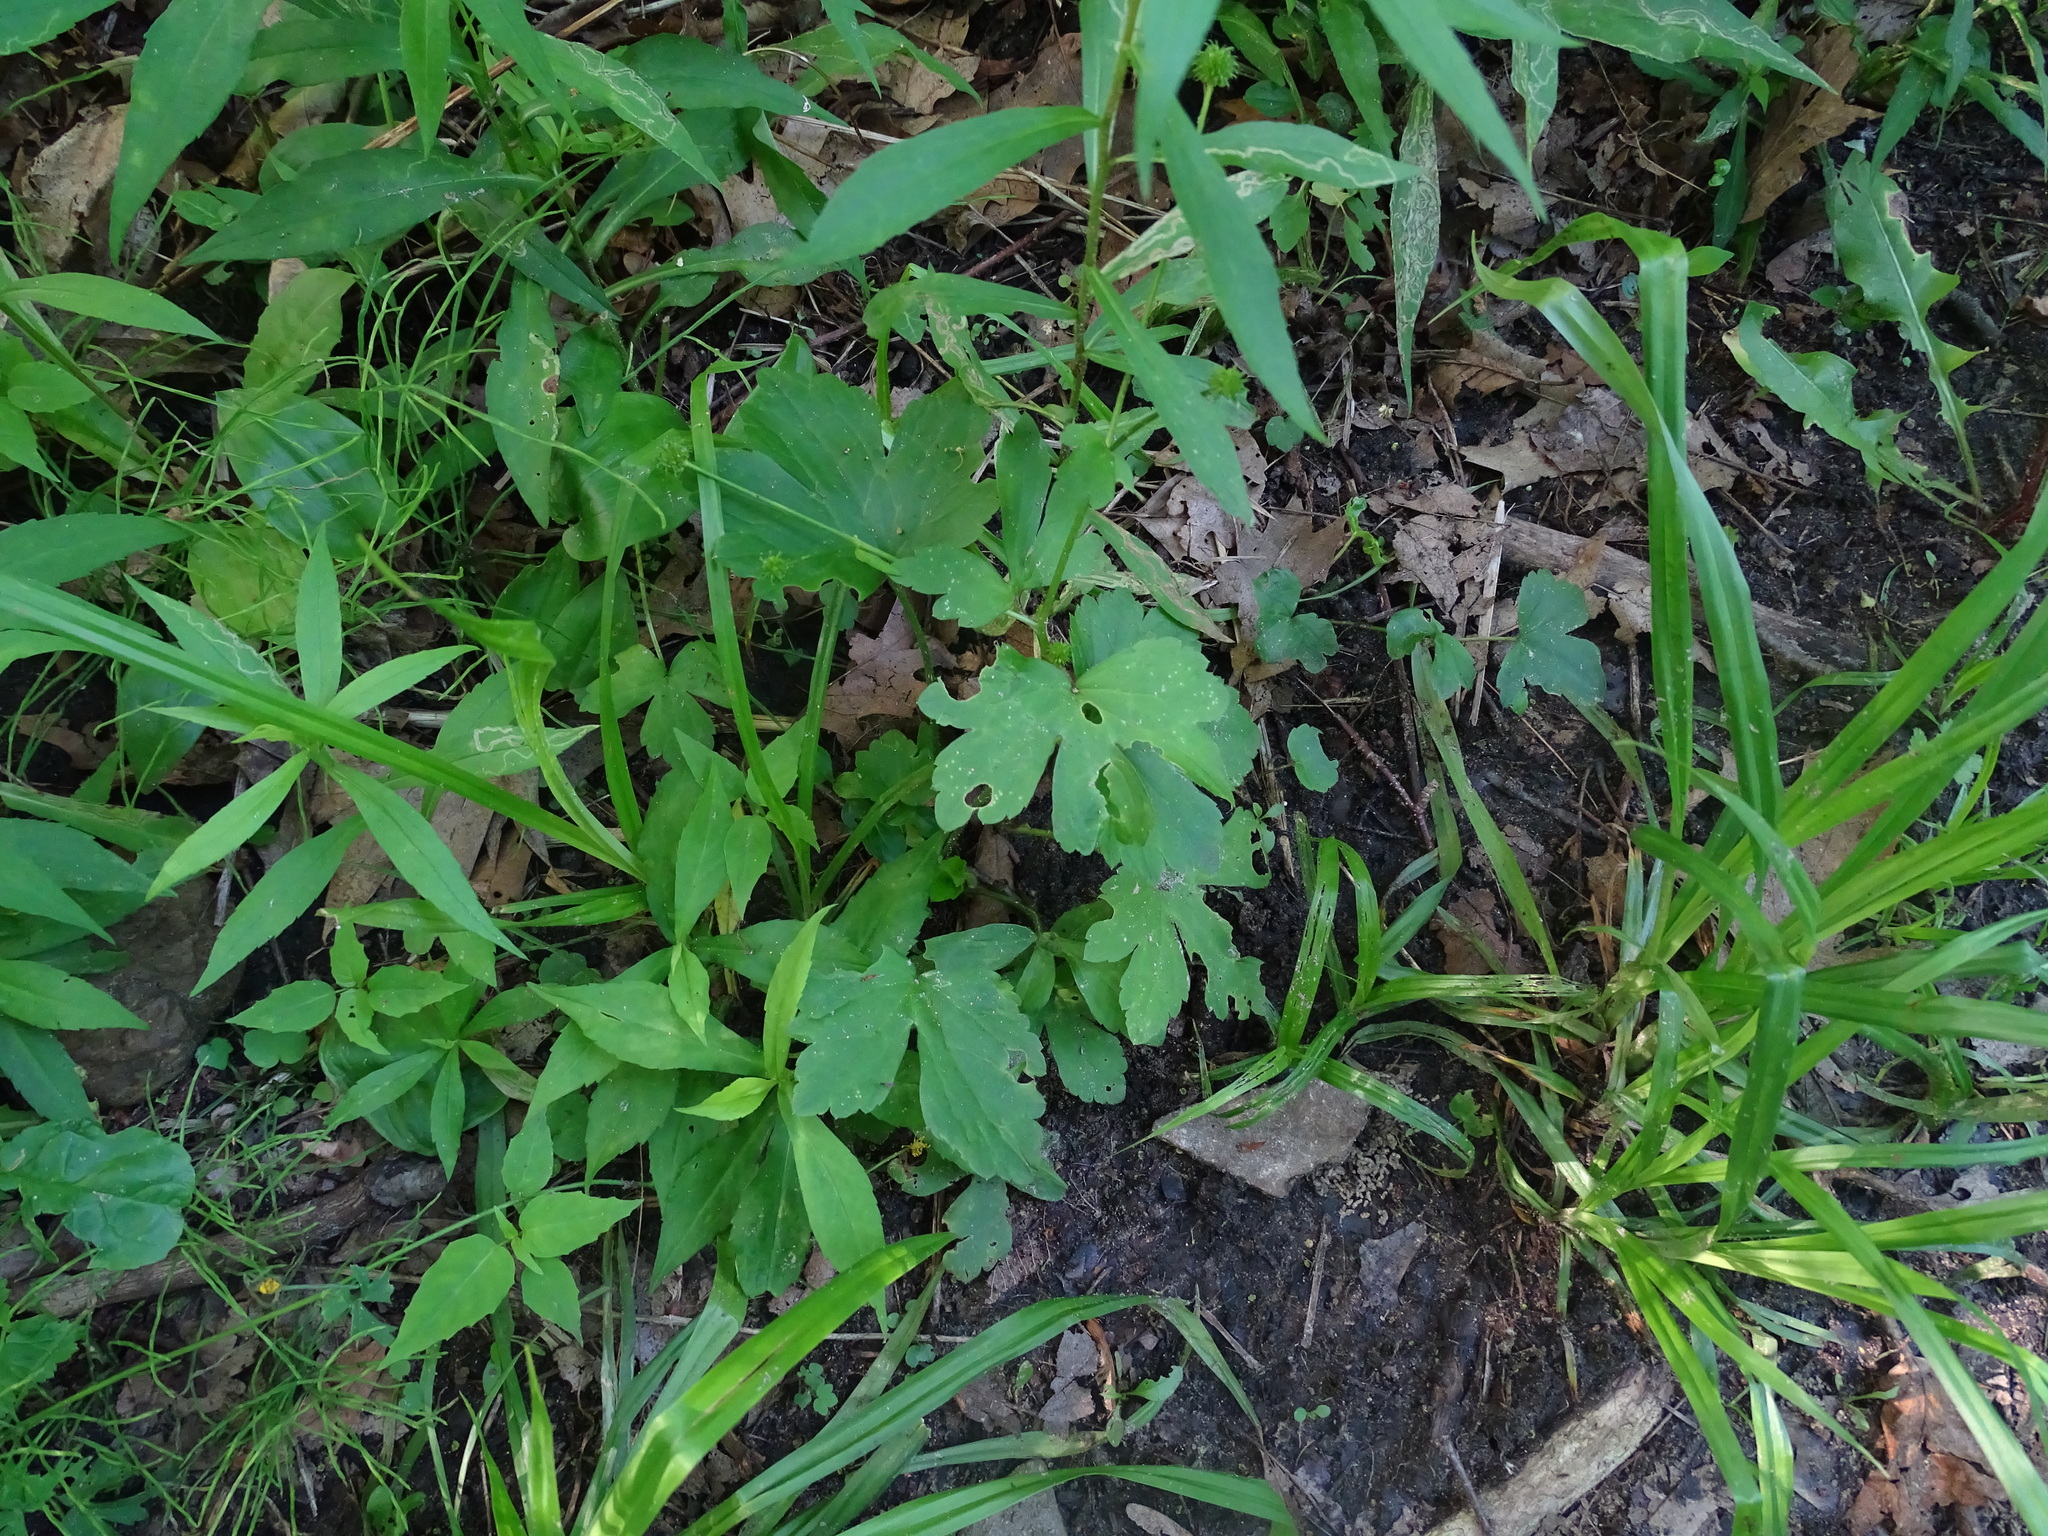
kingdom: Plantae
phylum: Tracheophyta
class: Magnoliopsida
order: Ranunculales
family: Ranunculaceae
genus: Ranunculus
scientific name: Ranunculus recurvatus
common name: Blisterwort
